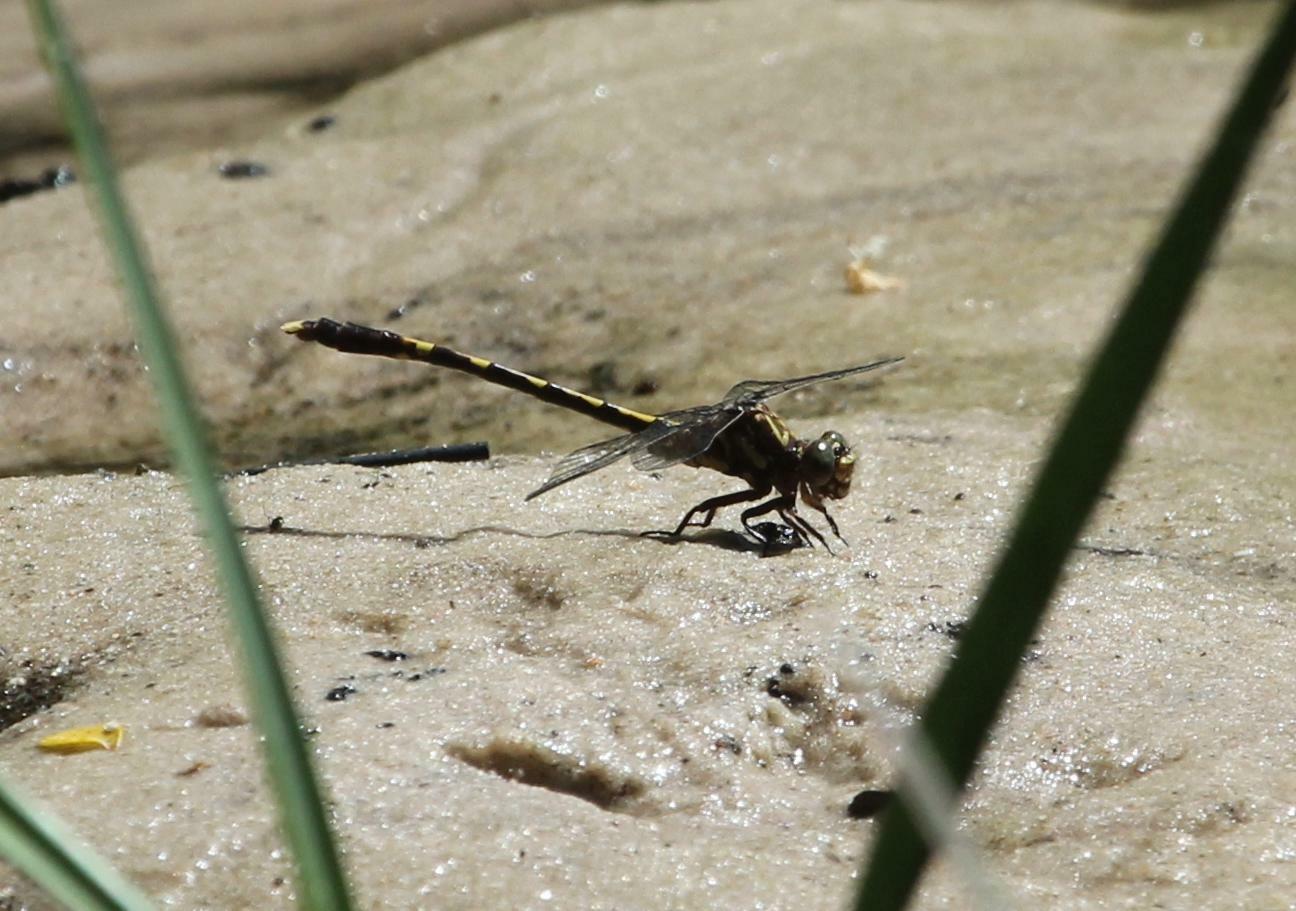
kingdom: Animalia
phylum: Arthropoda
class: Insecta
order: Odonata
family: Gomphidae
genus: Progomphus
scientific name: Progomphus obscurus
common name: Common sanddragon
